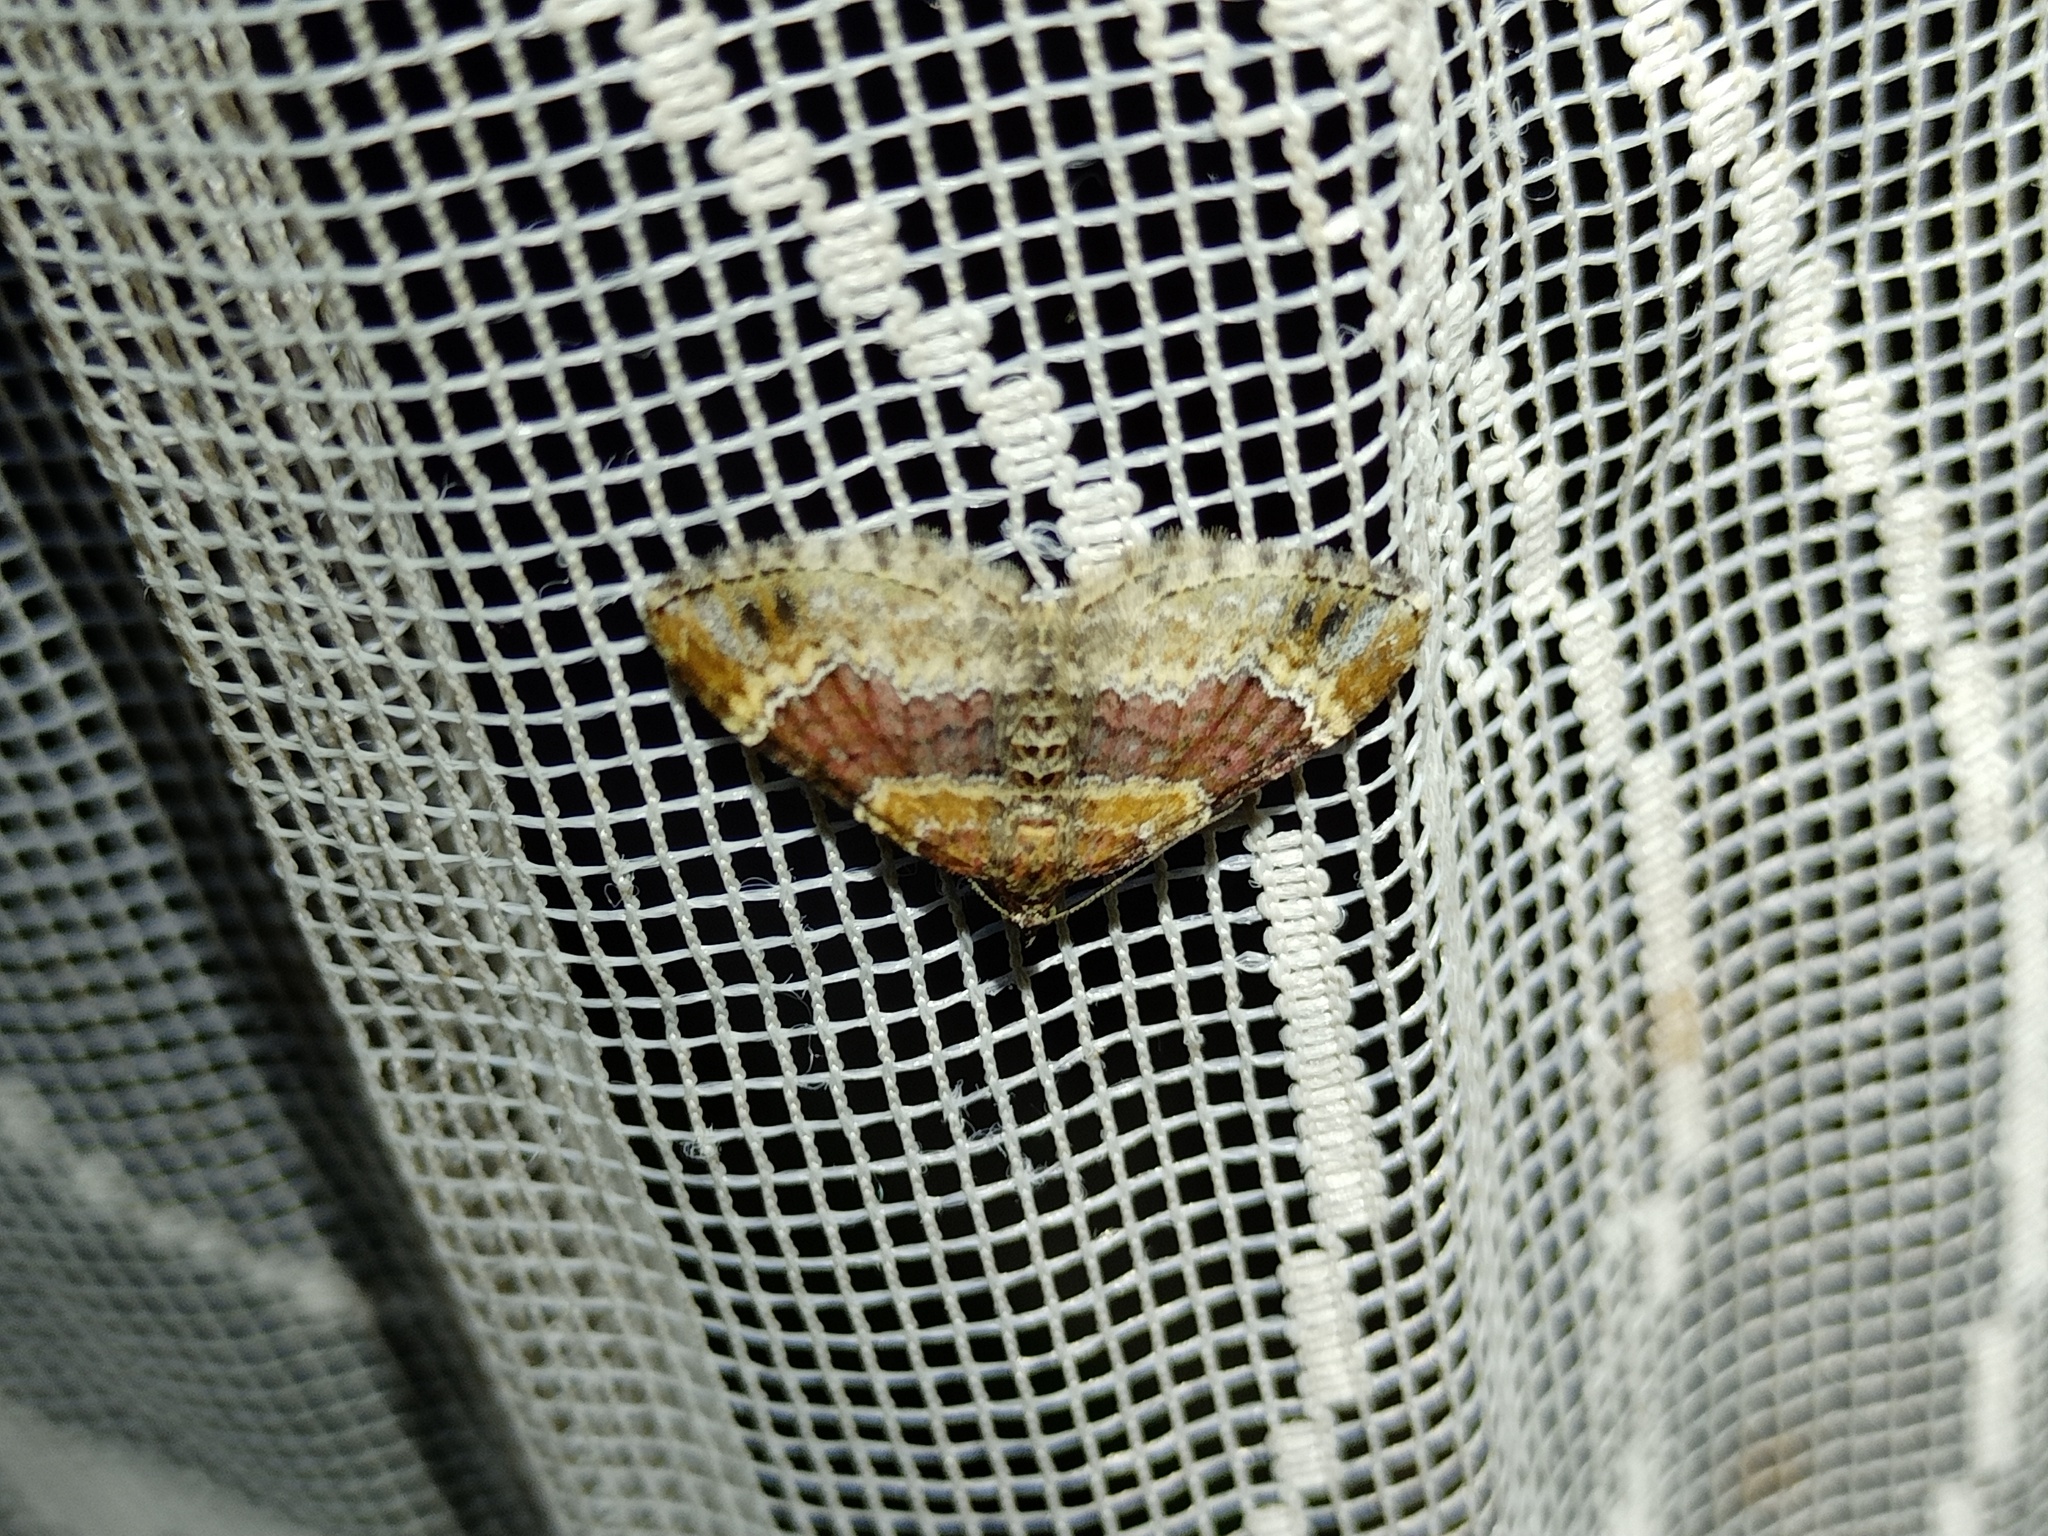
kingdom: Animalia
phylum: Arthropoda
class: Insecta
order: Lepidoptera
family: Geometridae
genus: Xanthorhoe
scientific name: Xanthorhoe spadicearia
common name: Red twin-spot carpet
